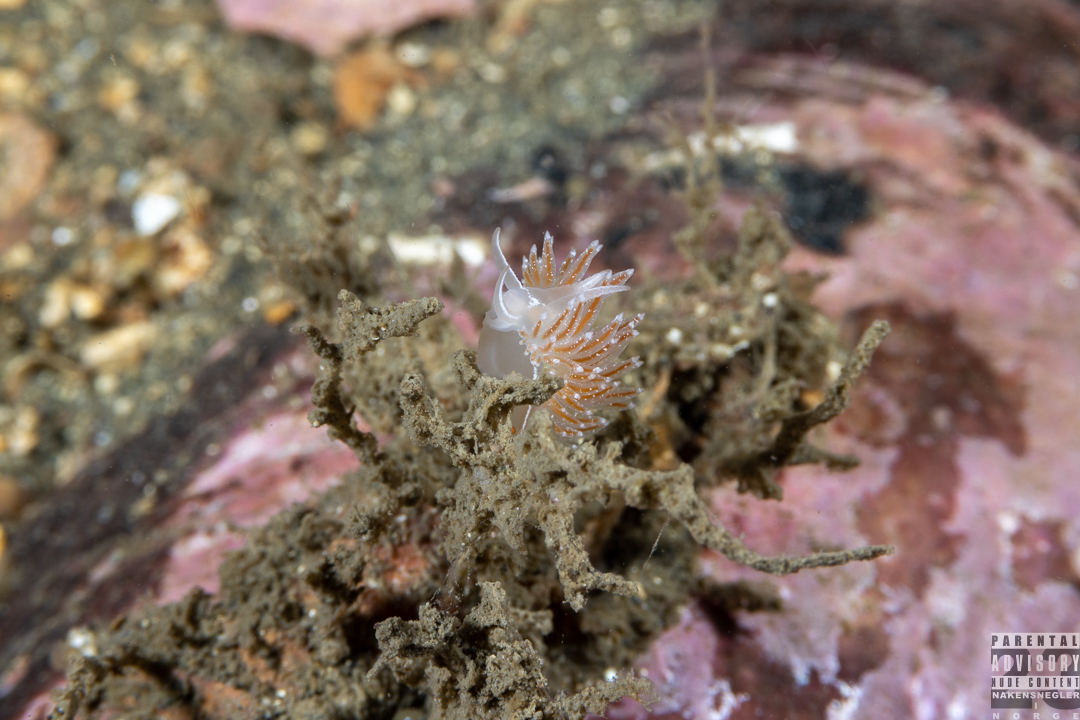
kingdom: Animalia
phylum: Mollusca
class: Gastropoda
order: Nudibranchia
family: Coryphellidae
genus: Coryphella
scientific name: Coryphella monicae
